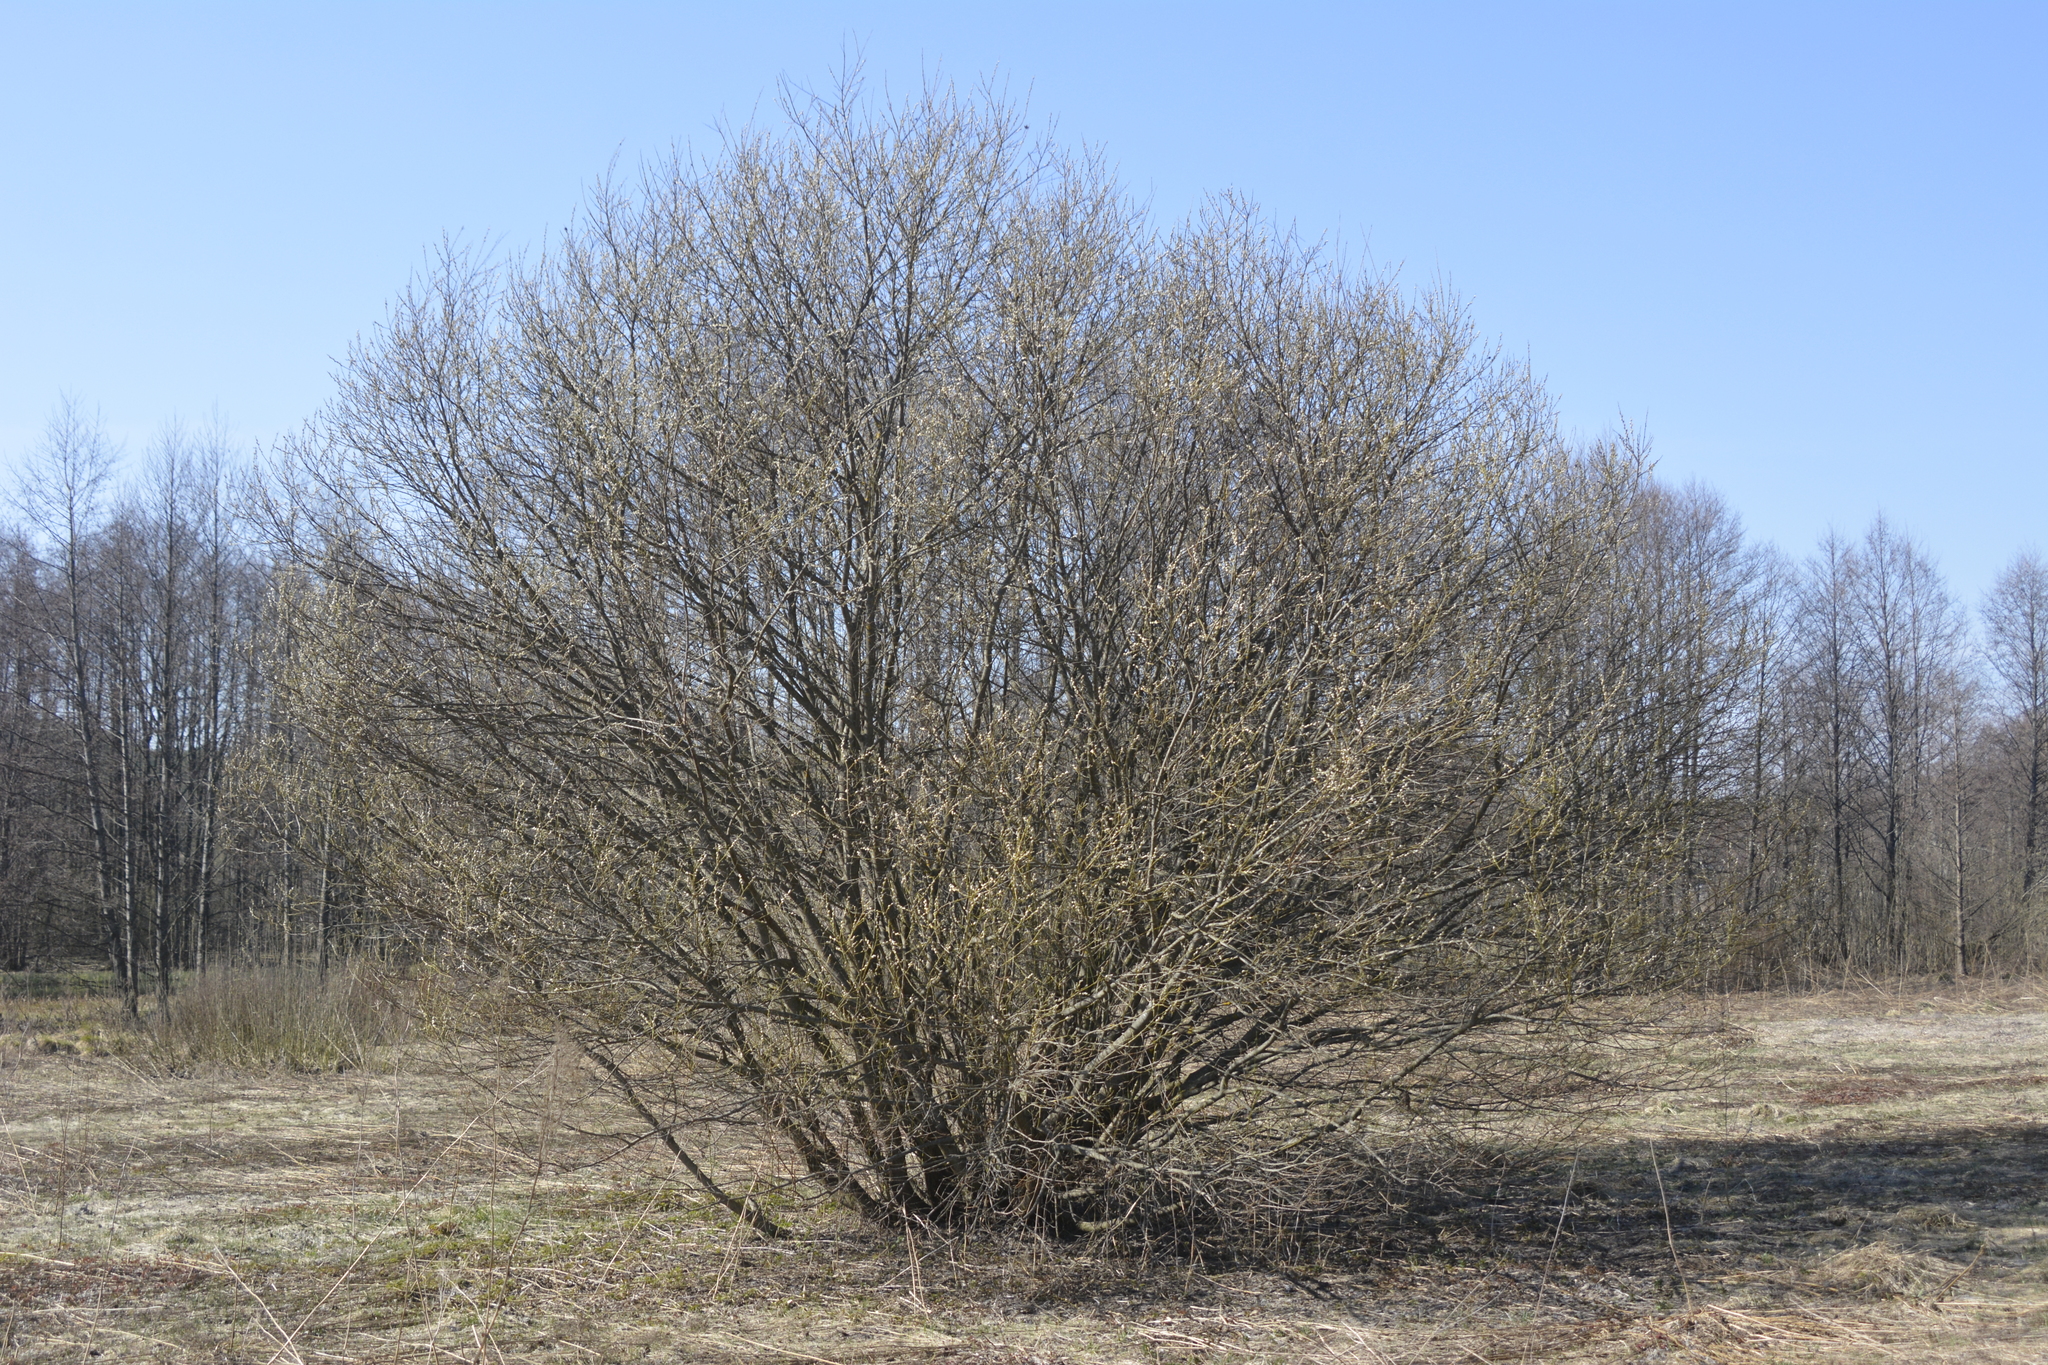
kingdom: Plantae
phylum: Tracheophyta
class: Magnoliopsida
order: Malpighiales
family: Salicaceae
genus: Salix
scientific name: Salix caprea
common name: Goat willow
